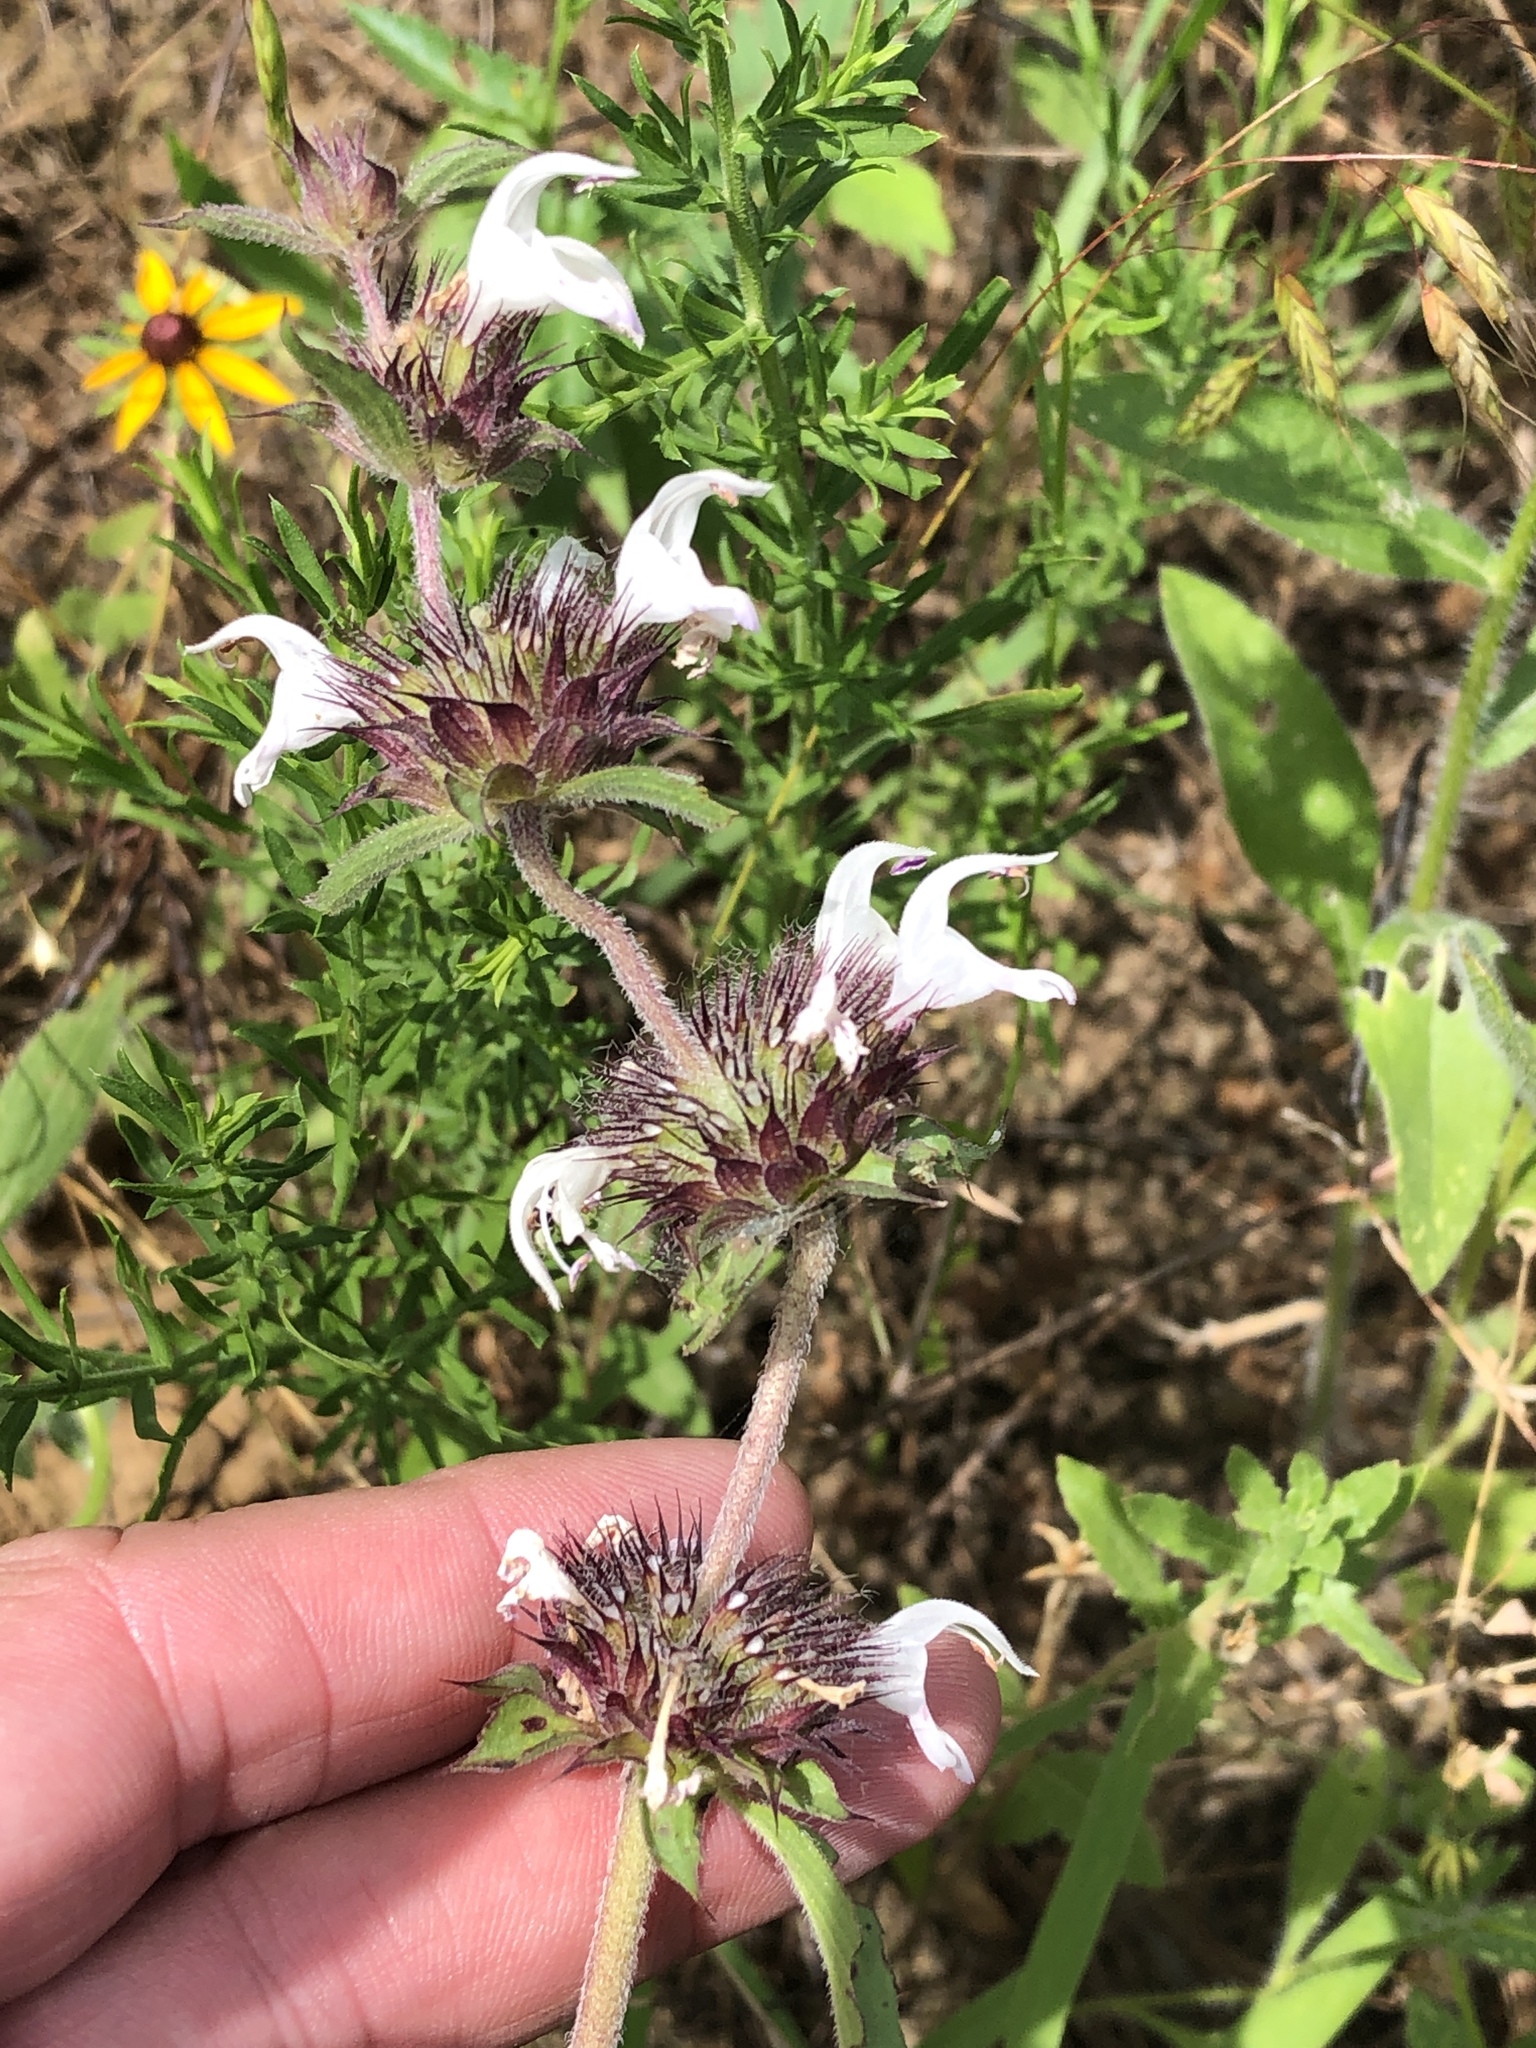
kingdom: Plantae
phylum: Tracheophyta
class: Magnoliopsida
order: Lamiales
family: Lamiaceae
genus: Monarda
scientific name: Monarda clinopodioides
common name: Basil beebalm
